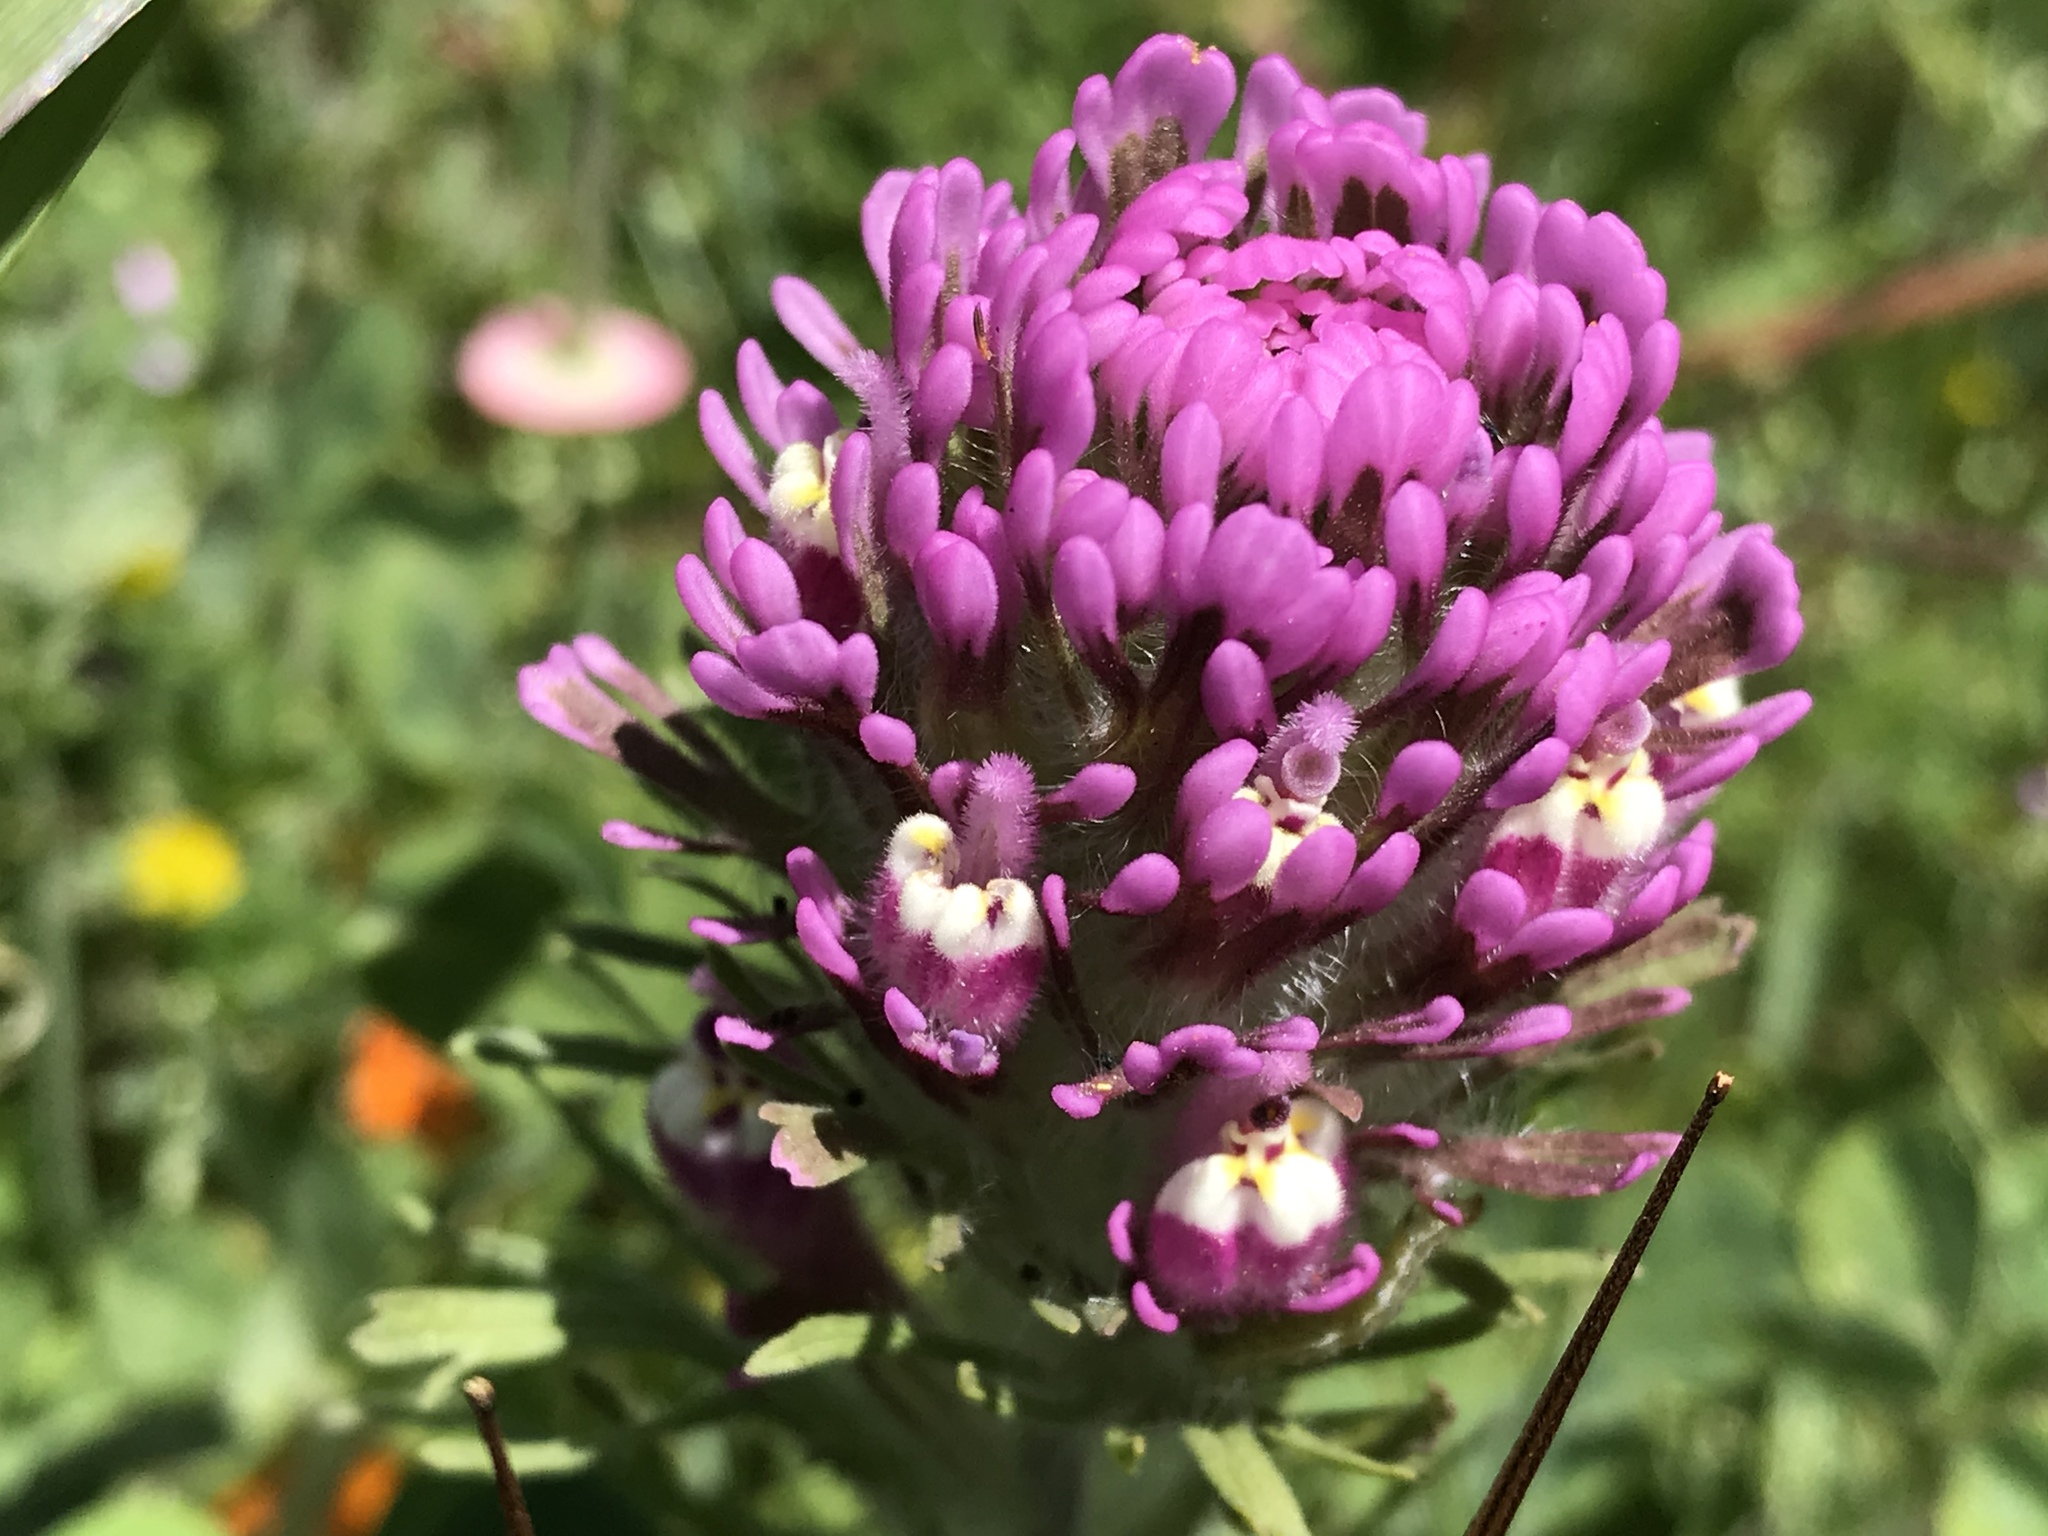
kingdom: Plantae
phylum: Tracheophyta
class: Magnoliopsida
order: Lamiales
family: Orobanchaceae
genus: Castilleja
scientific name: Castilleja exserta
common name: Purple owl-clover
